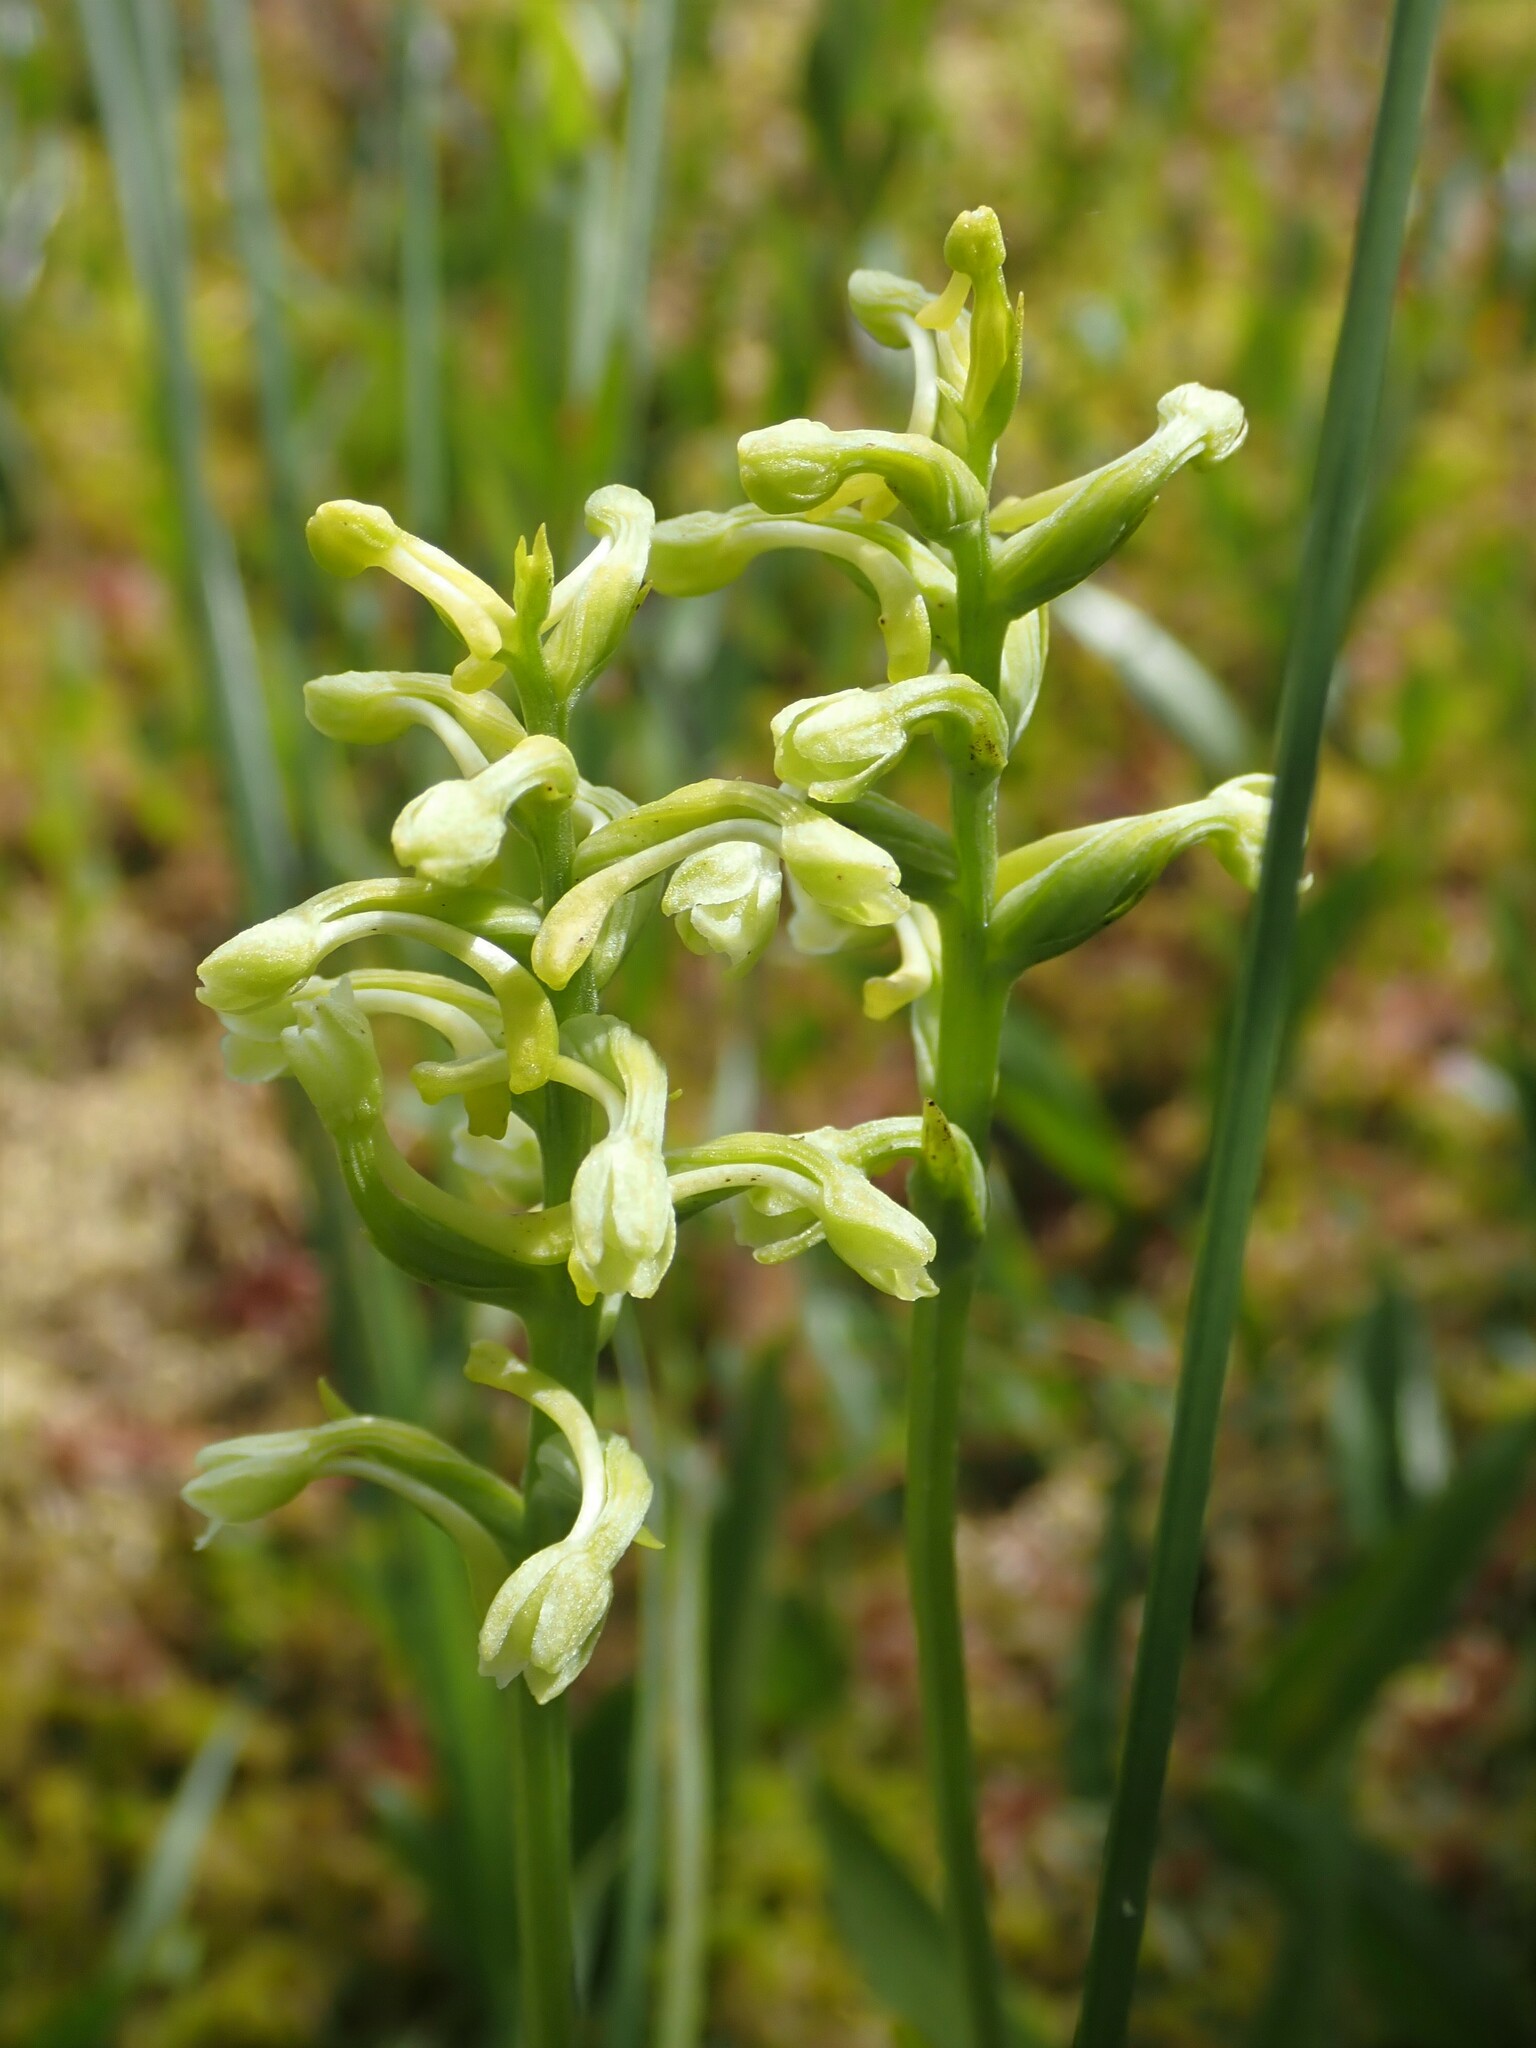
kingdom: Plantae
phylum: Tracheophyta
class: Liliopsida
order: Asparagales
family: Orchidaceae
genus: Platanthera
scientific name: Platanthera clavellata
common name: Club-spur orchid
